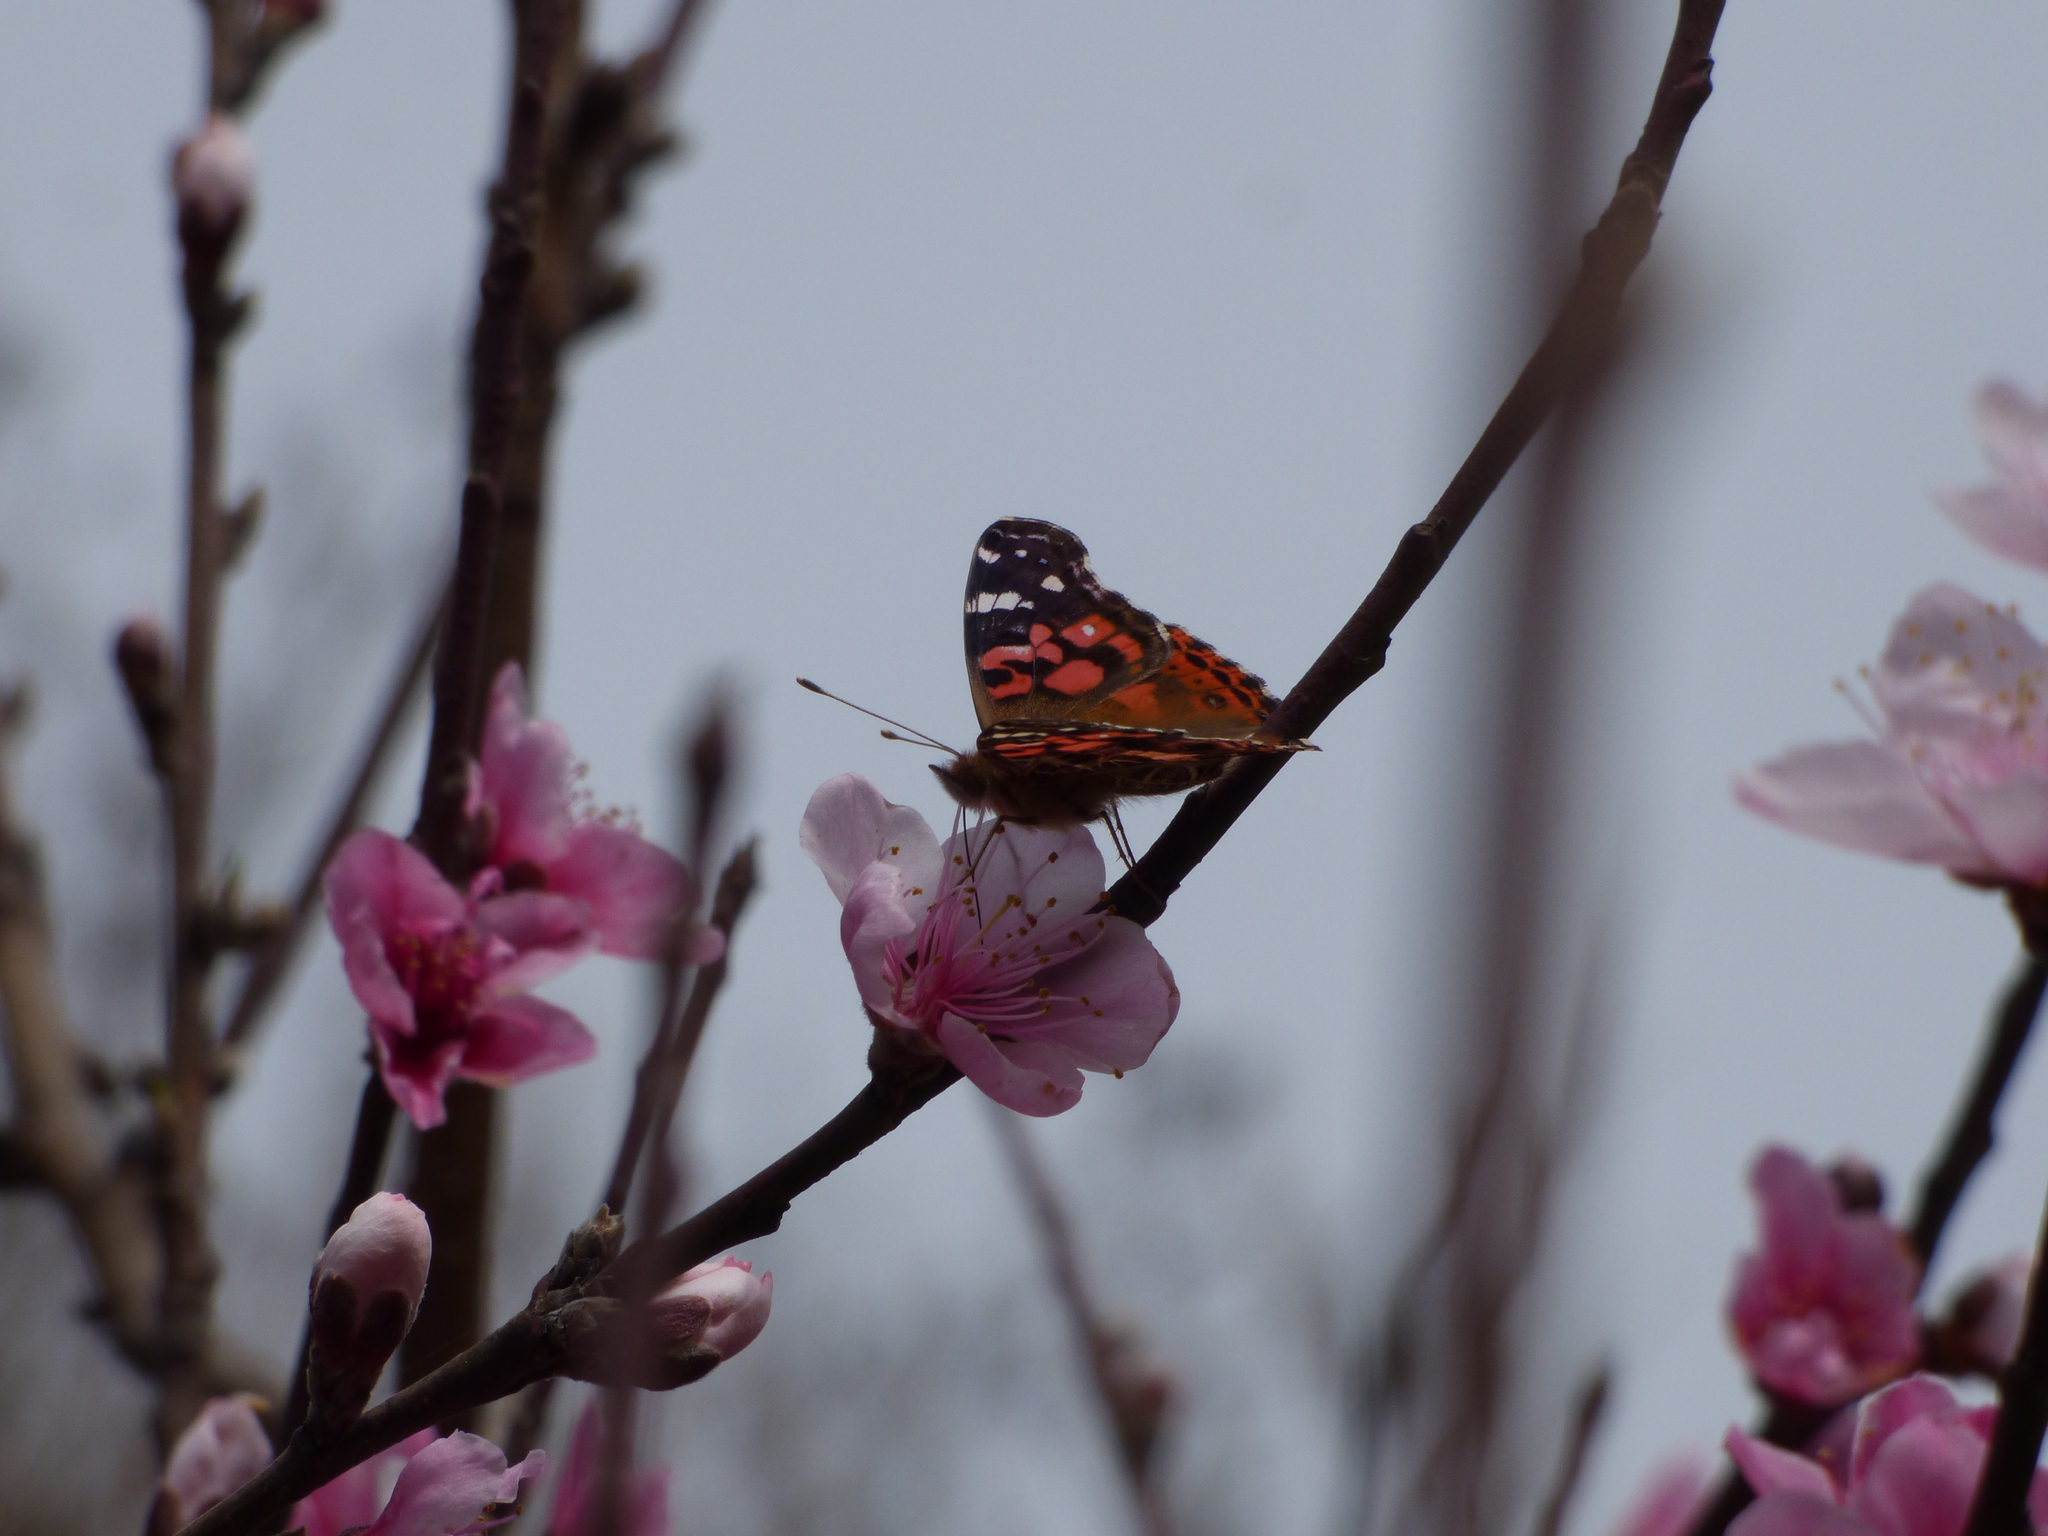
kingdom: Animalia
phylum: Arthropoda
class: Insecta
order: Lepidoptera
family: Nymphalidae
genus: Vanessa
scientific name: Vanessa braziliensis
